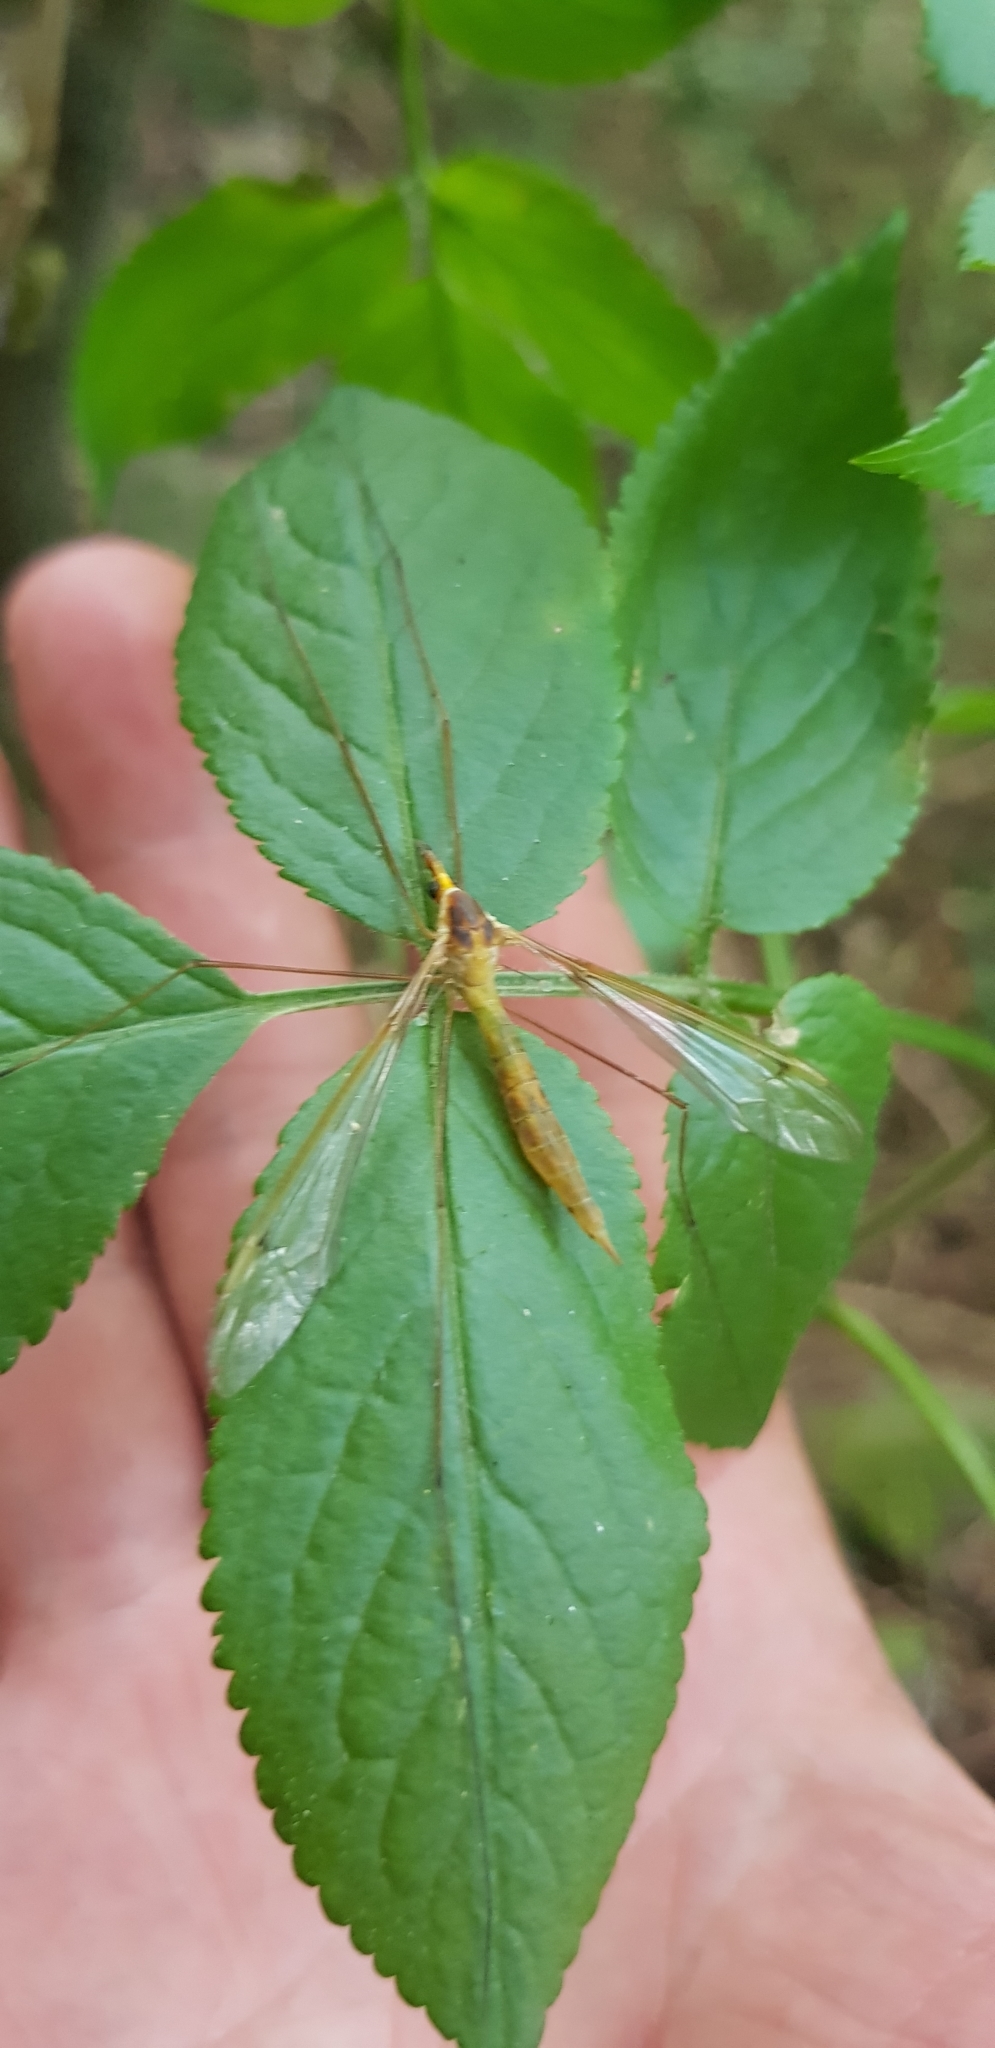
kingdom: Plantae
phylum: Tracheophyta
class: Magnoliopsida
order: Dipsacales
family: Viburnaceae
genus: Sambucus
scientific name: Sambucus nigra
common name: Elder
